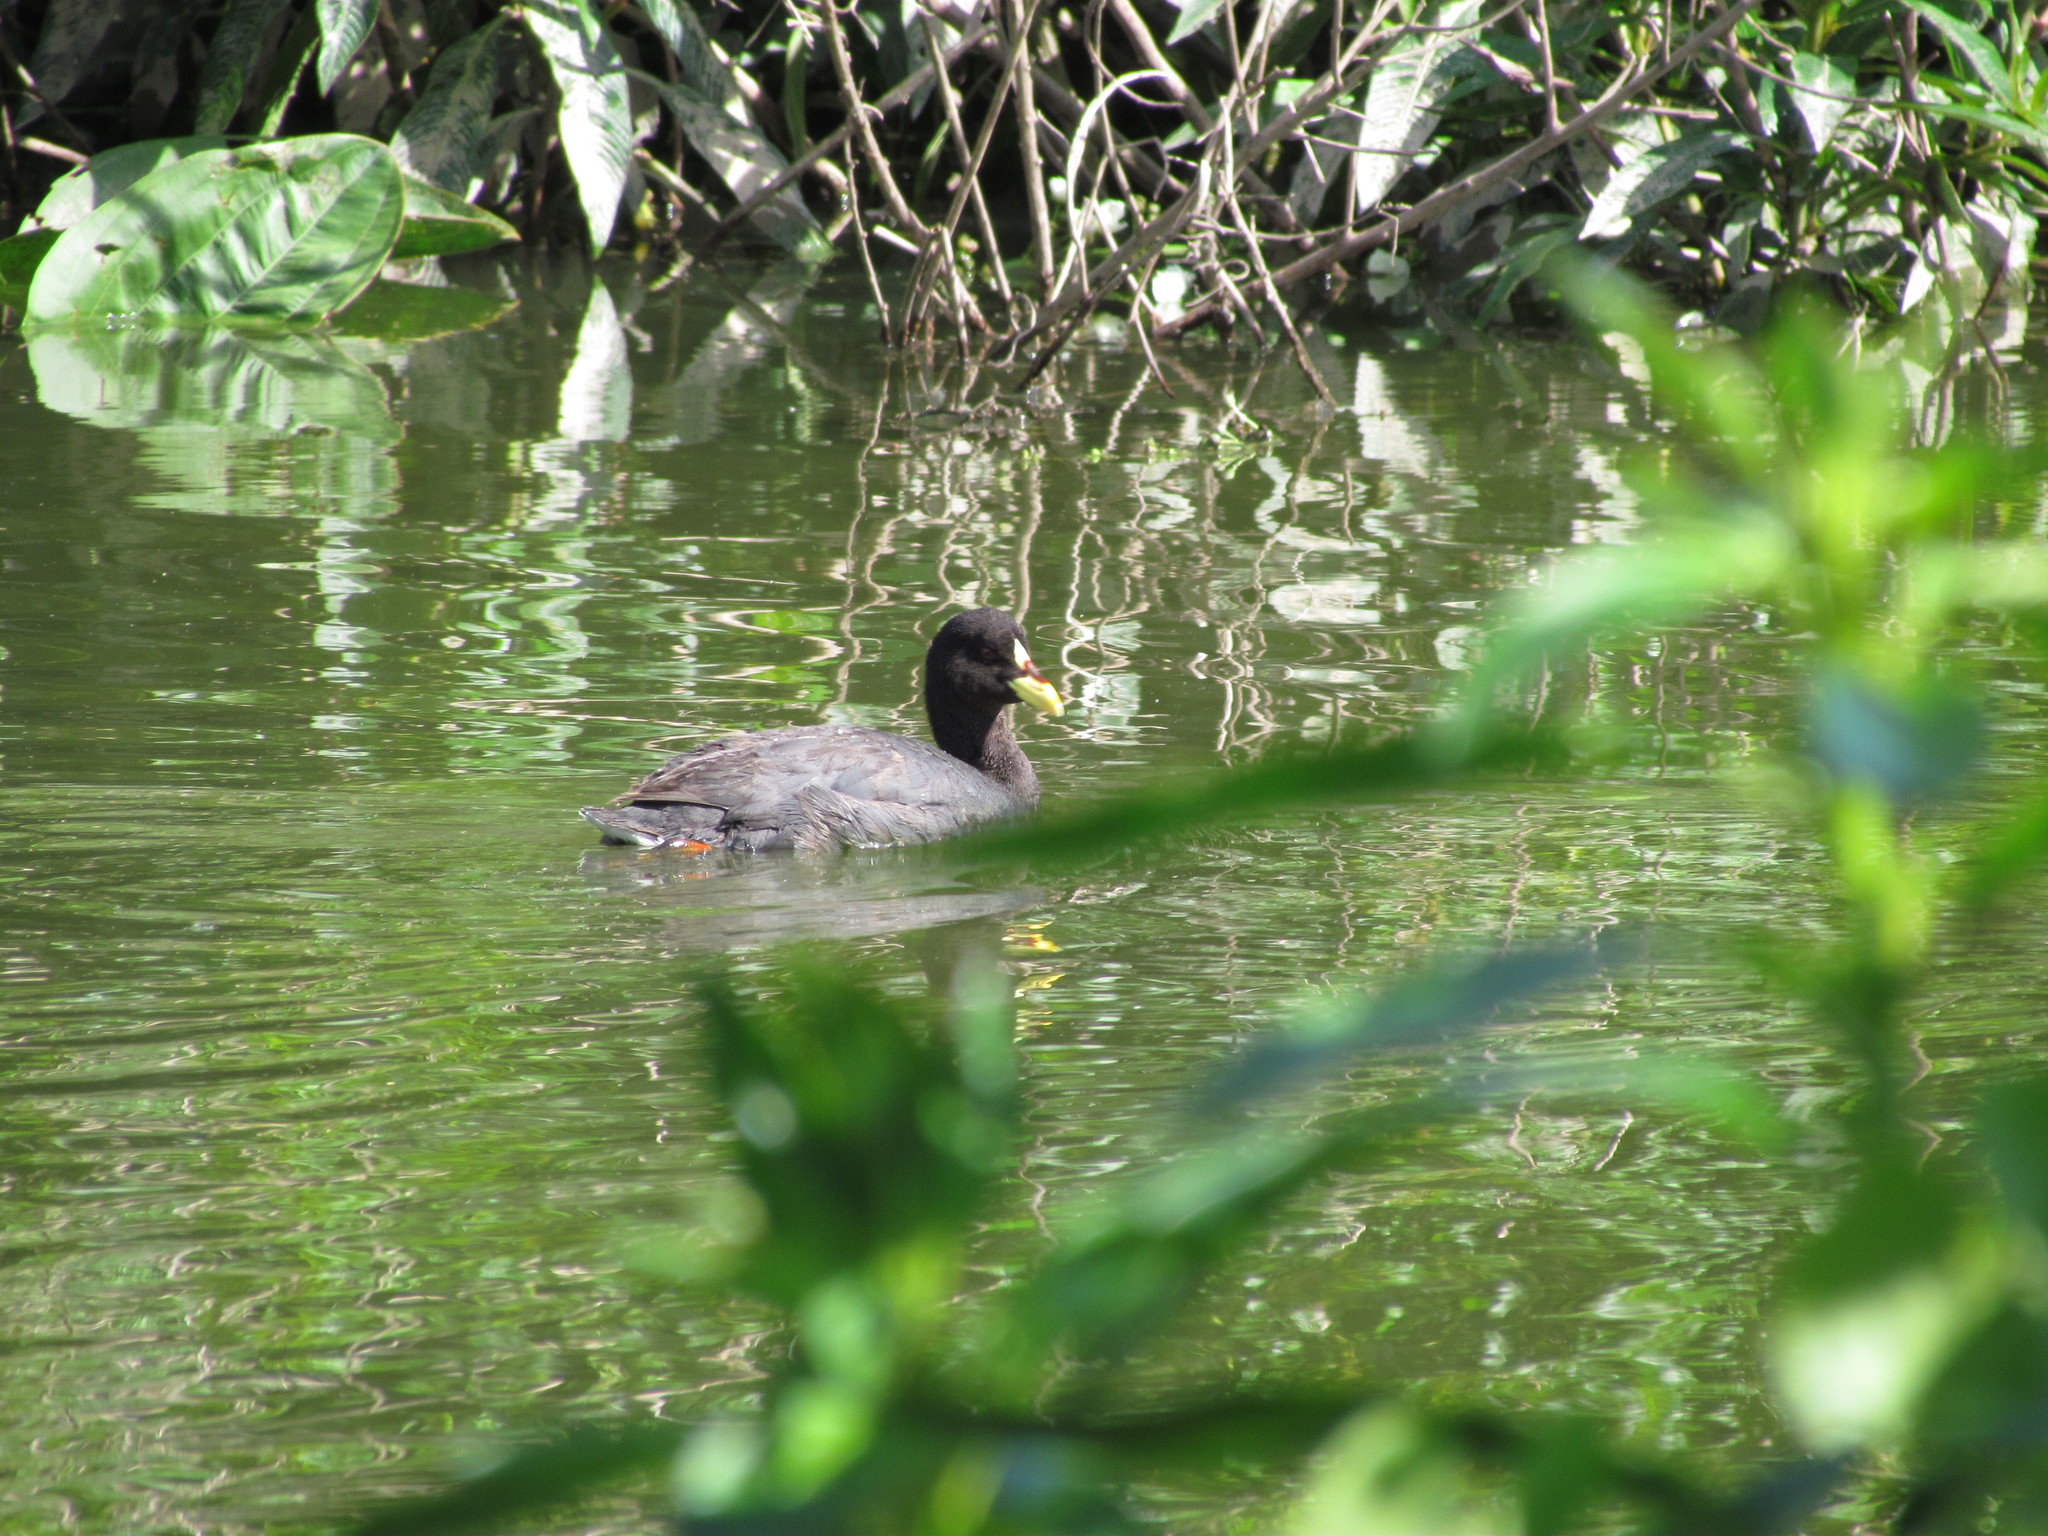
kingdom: Animalia
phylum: Chordata
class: Aves
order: Gruiformes
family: Rallidae
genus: Fulica
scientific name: Fulica armillata
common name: Red-gartered coot
